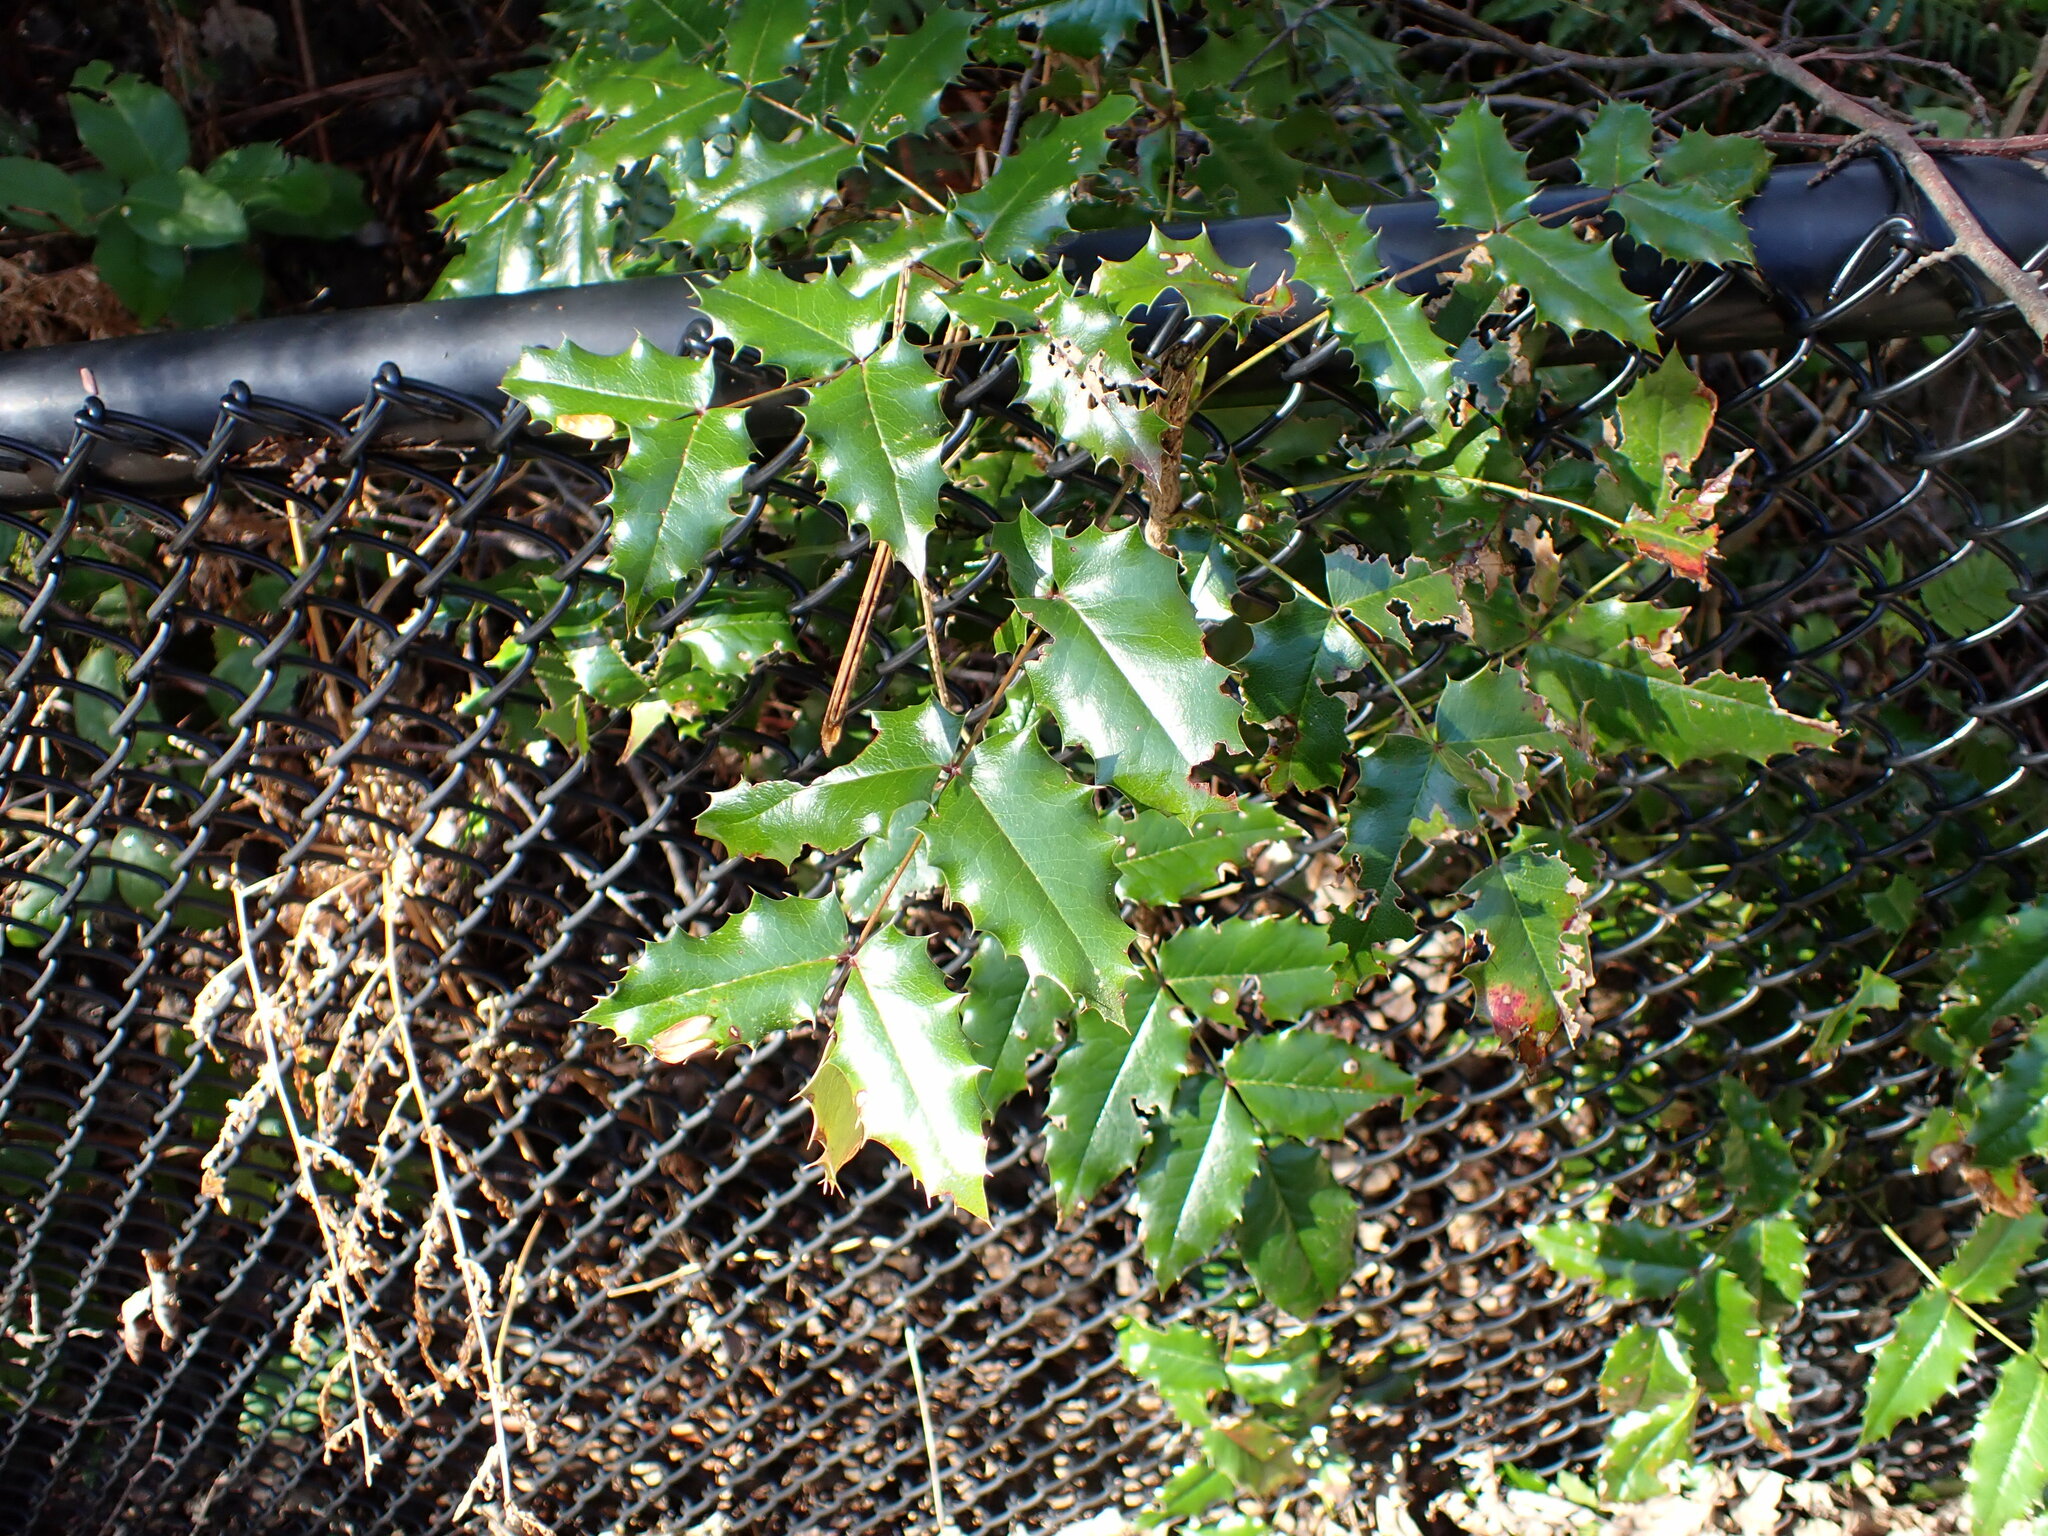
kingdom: Plantae
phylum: Tracheophyta
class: Magnoliopsida
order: Ranunculales
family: Berberidaceae
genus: Mahonia
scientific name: Mahonia aquifolium
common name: Oregon-grape
